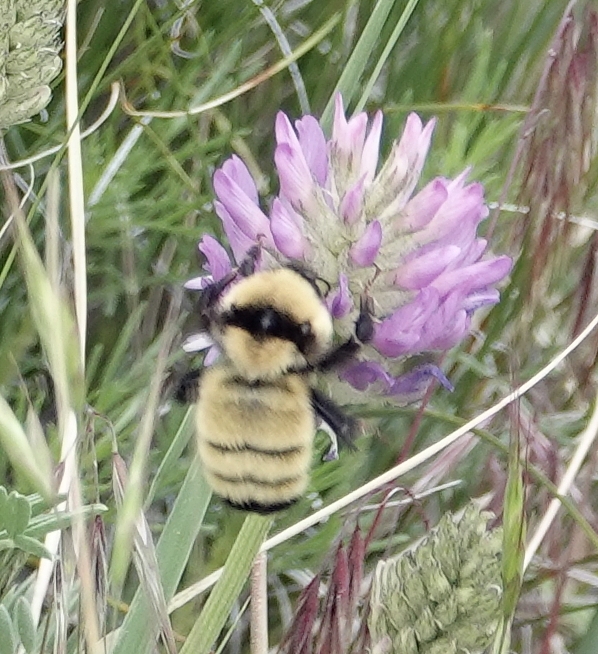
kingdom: Animalia
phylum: Arthropoda
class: Insecta
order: Hymenoptera
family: Apidae
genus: Bombus
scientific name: Bombus fervidus
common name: Yellow bumble bee
